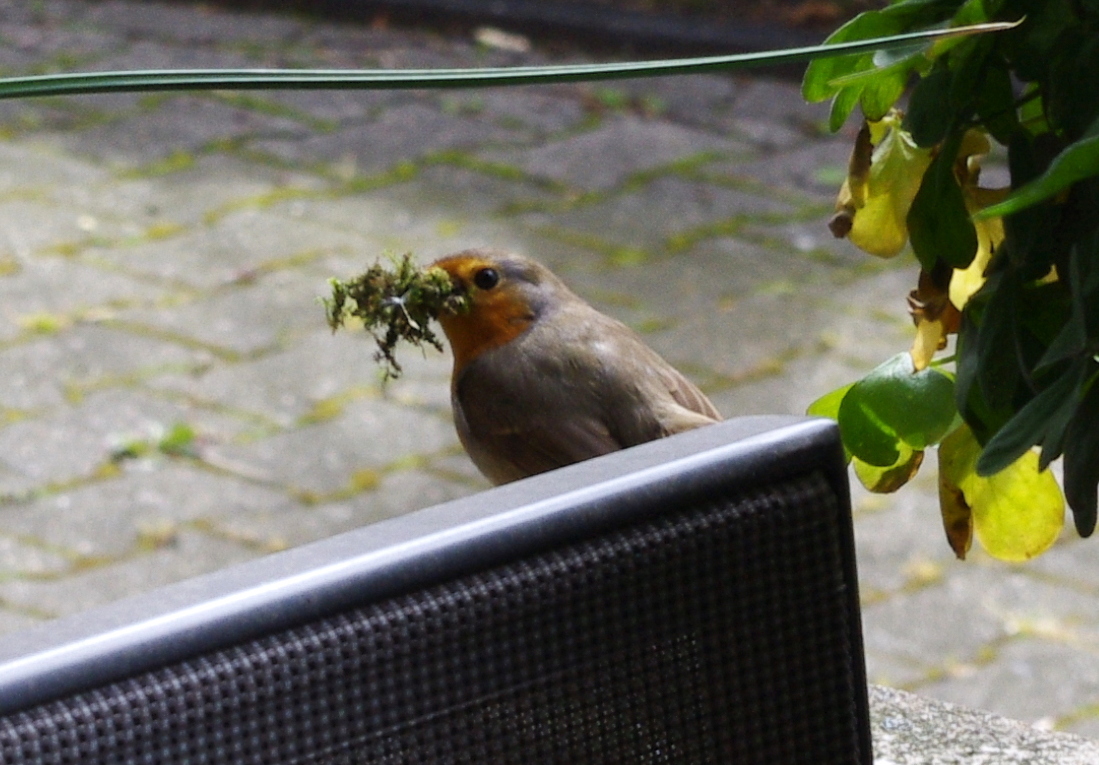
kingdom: Animalia
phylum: Chordata
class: Aves
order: Passeriformes
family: Muscicapidae
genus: Erithacus
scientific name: Erithacus rubecula
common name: European robin
